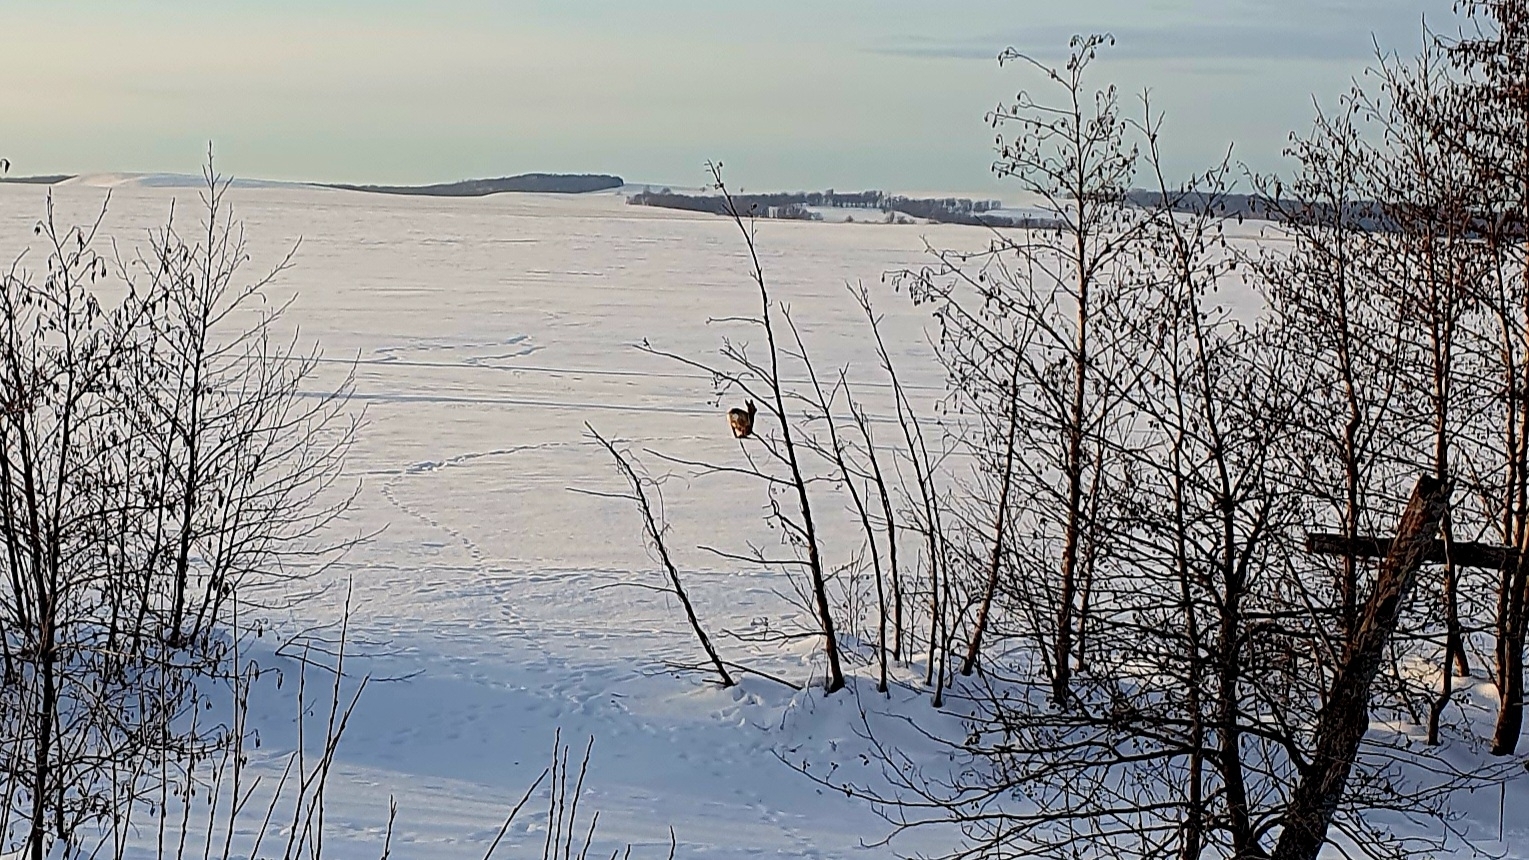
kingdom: Animalia
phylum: Chordata
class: Mammalia
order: Artiodactyla
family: Cervidae
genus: Capreolus
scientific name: Capreolus pygargus
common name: Siberian roe
